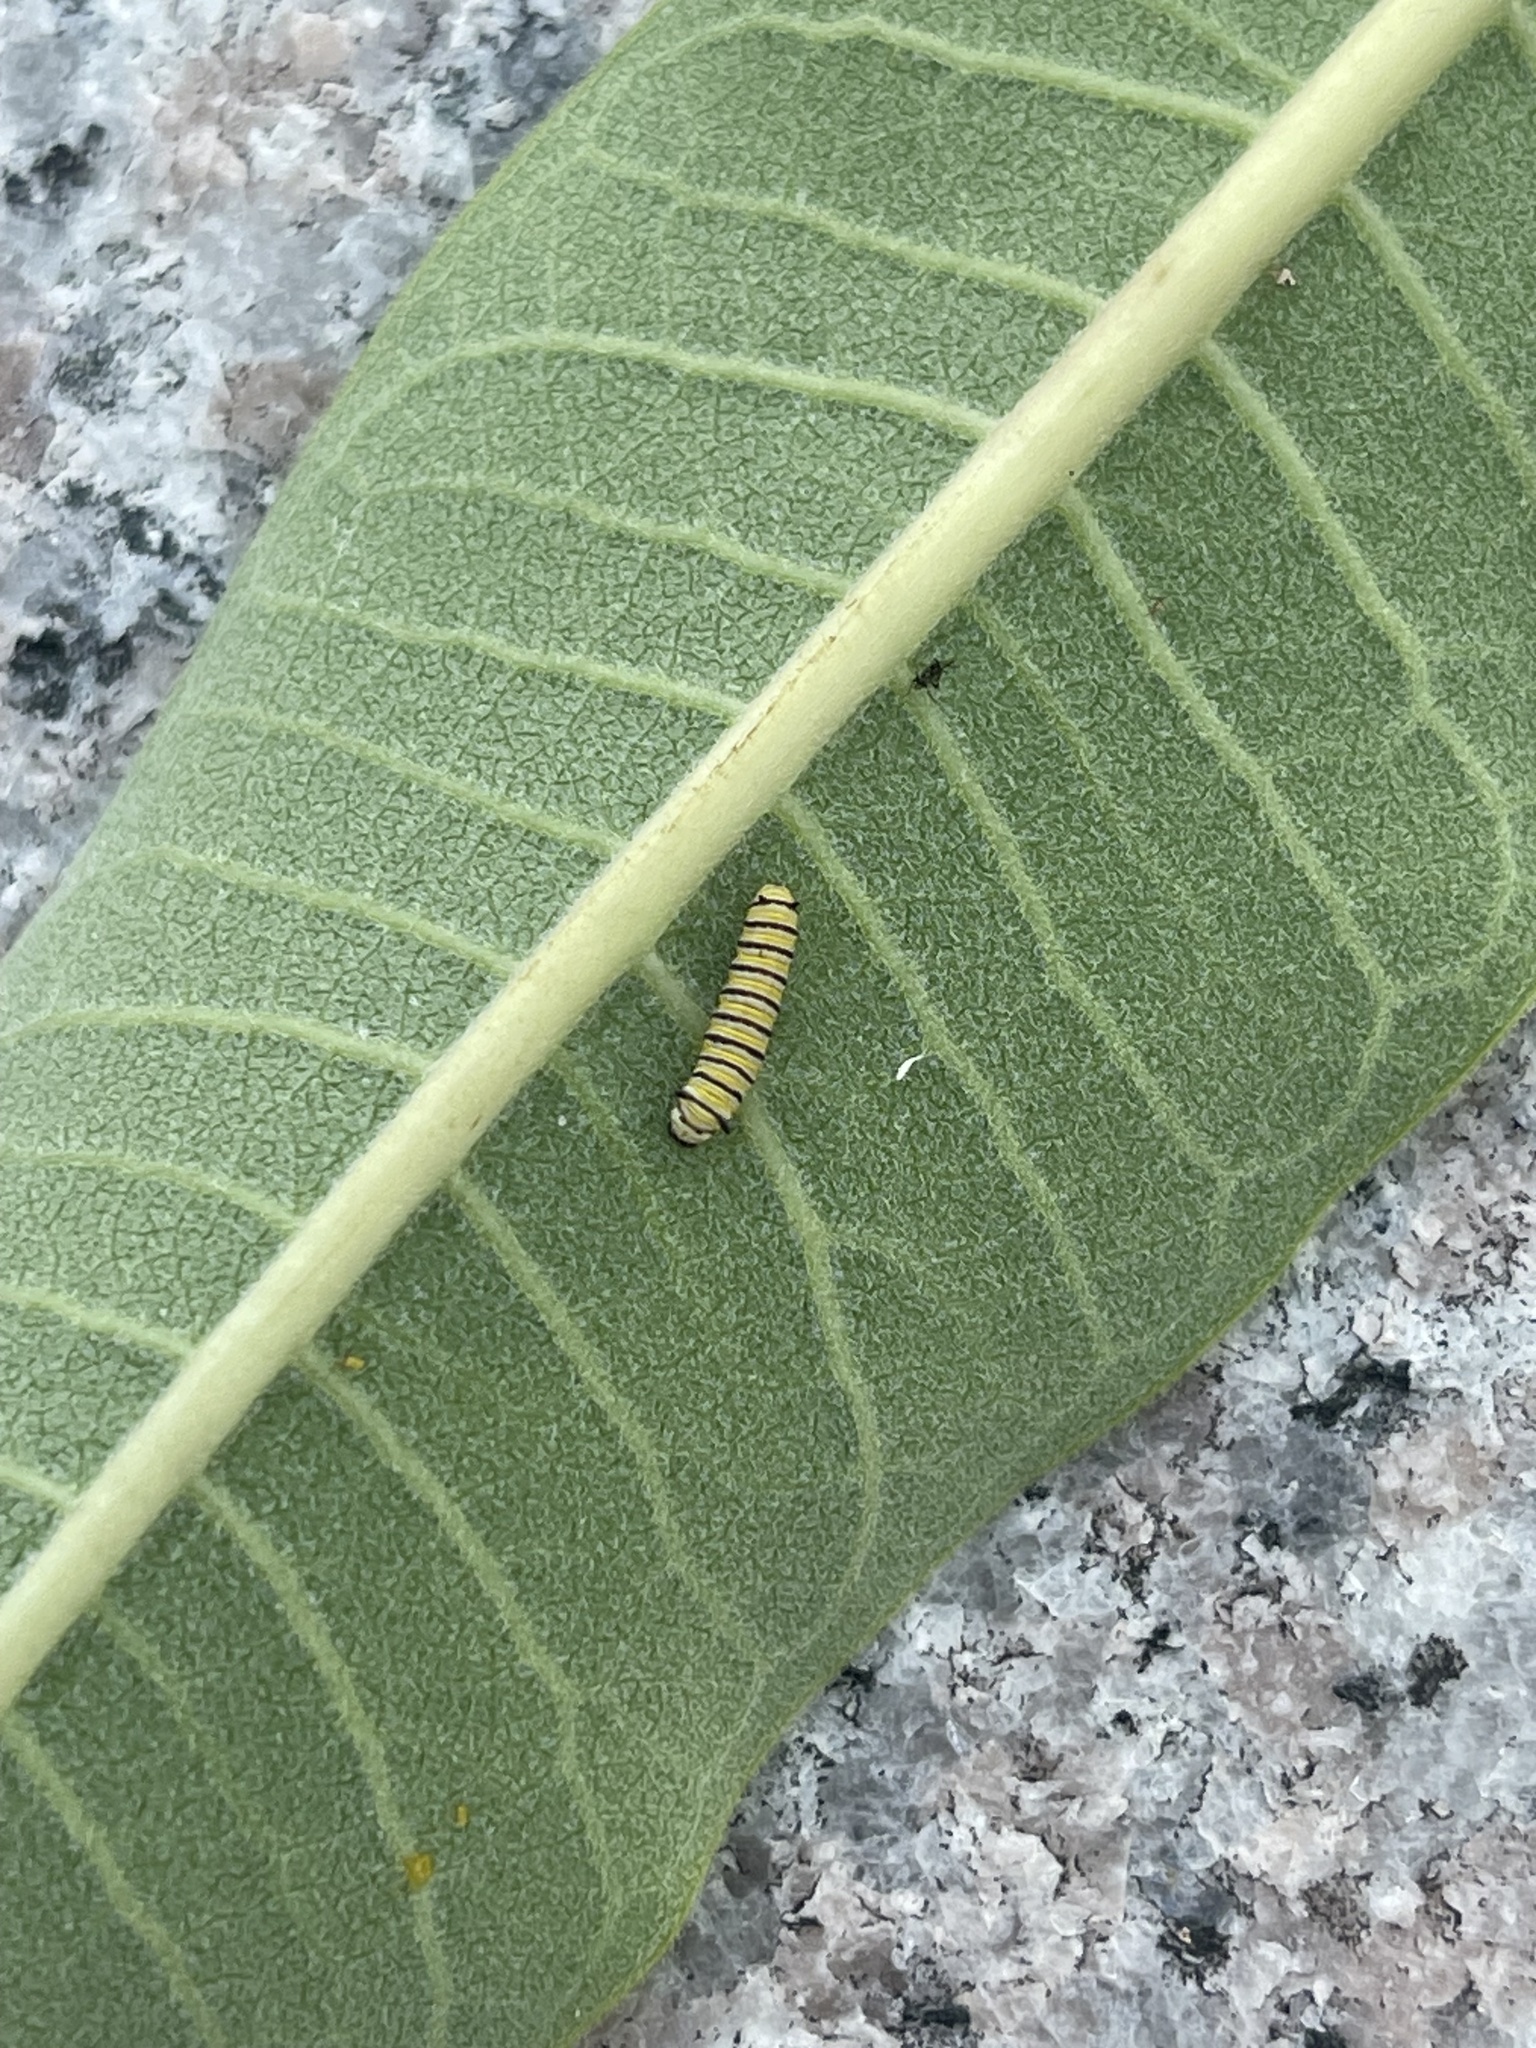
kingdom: Animalia
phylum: Arthropoda
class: Insecta
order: Lepidoptera
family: Nymphalidae
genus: Danaus
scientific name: Danaus plexippus
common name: Monarch
